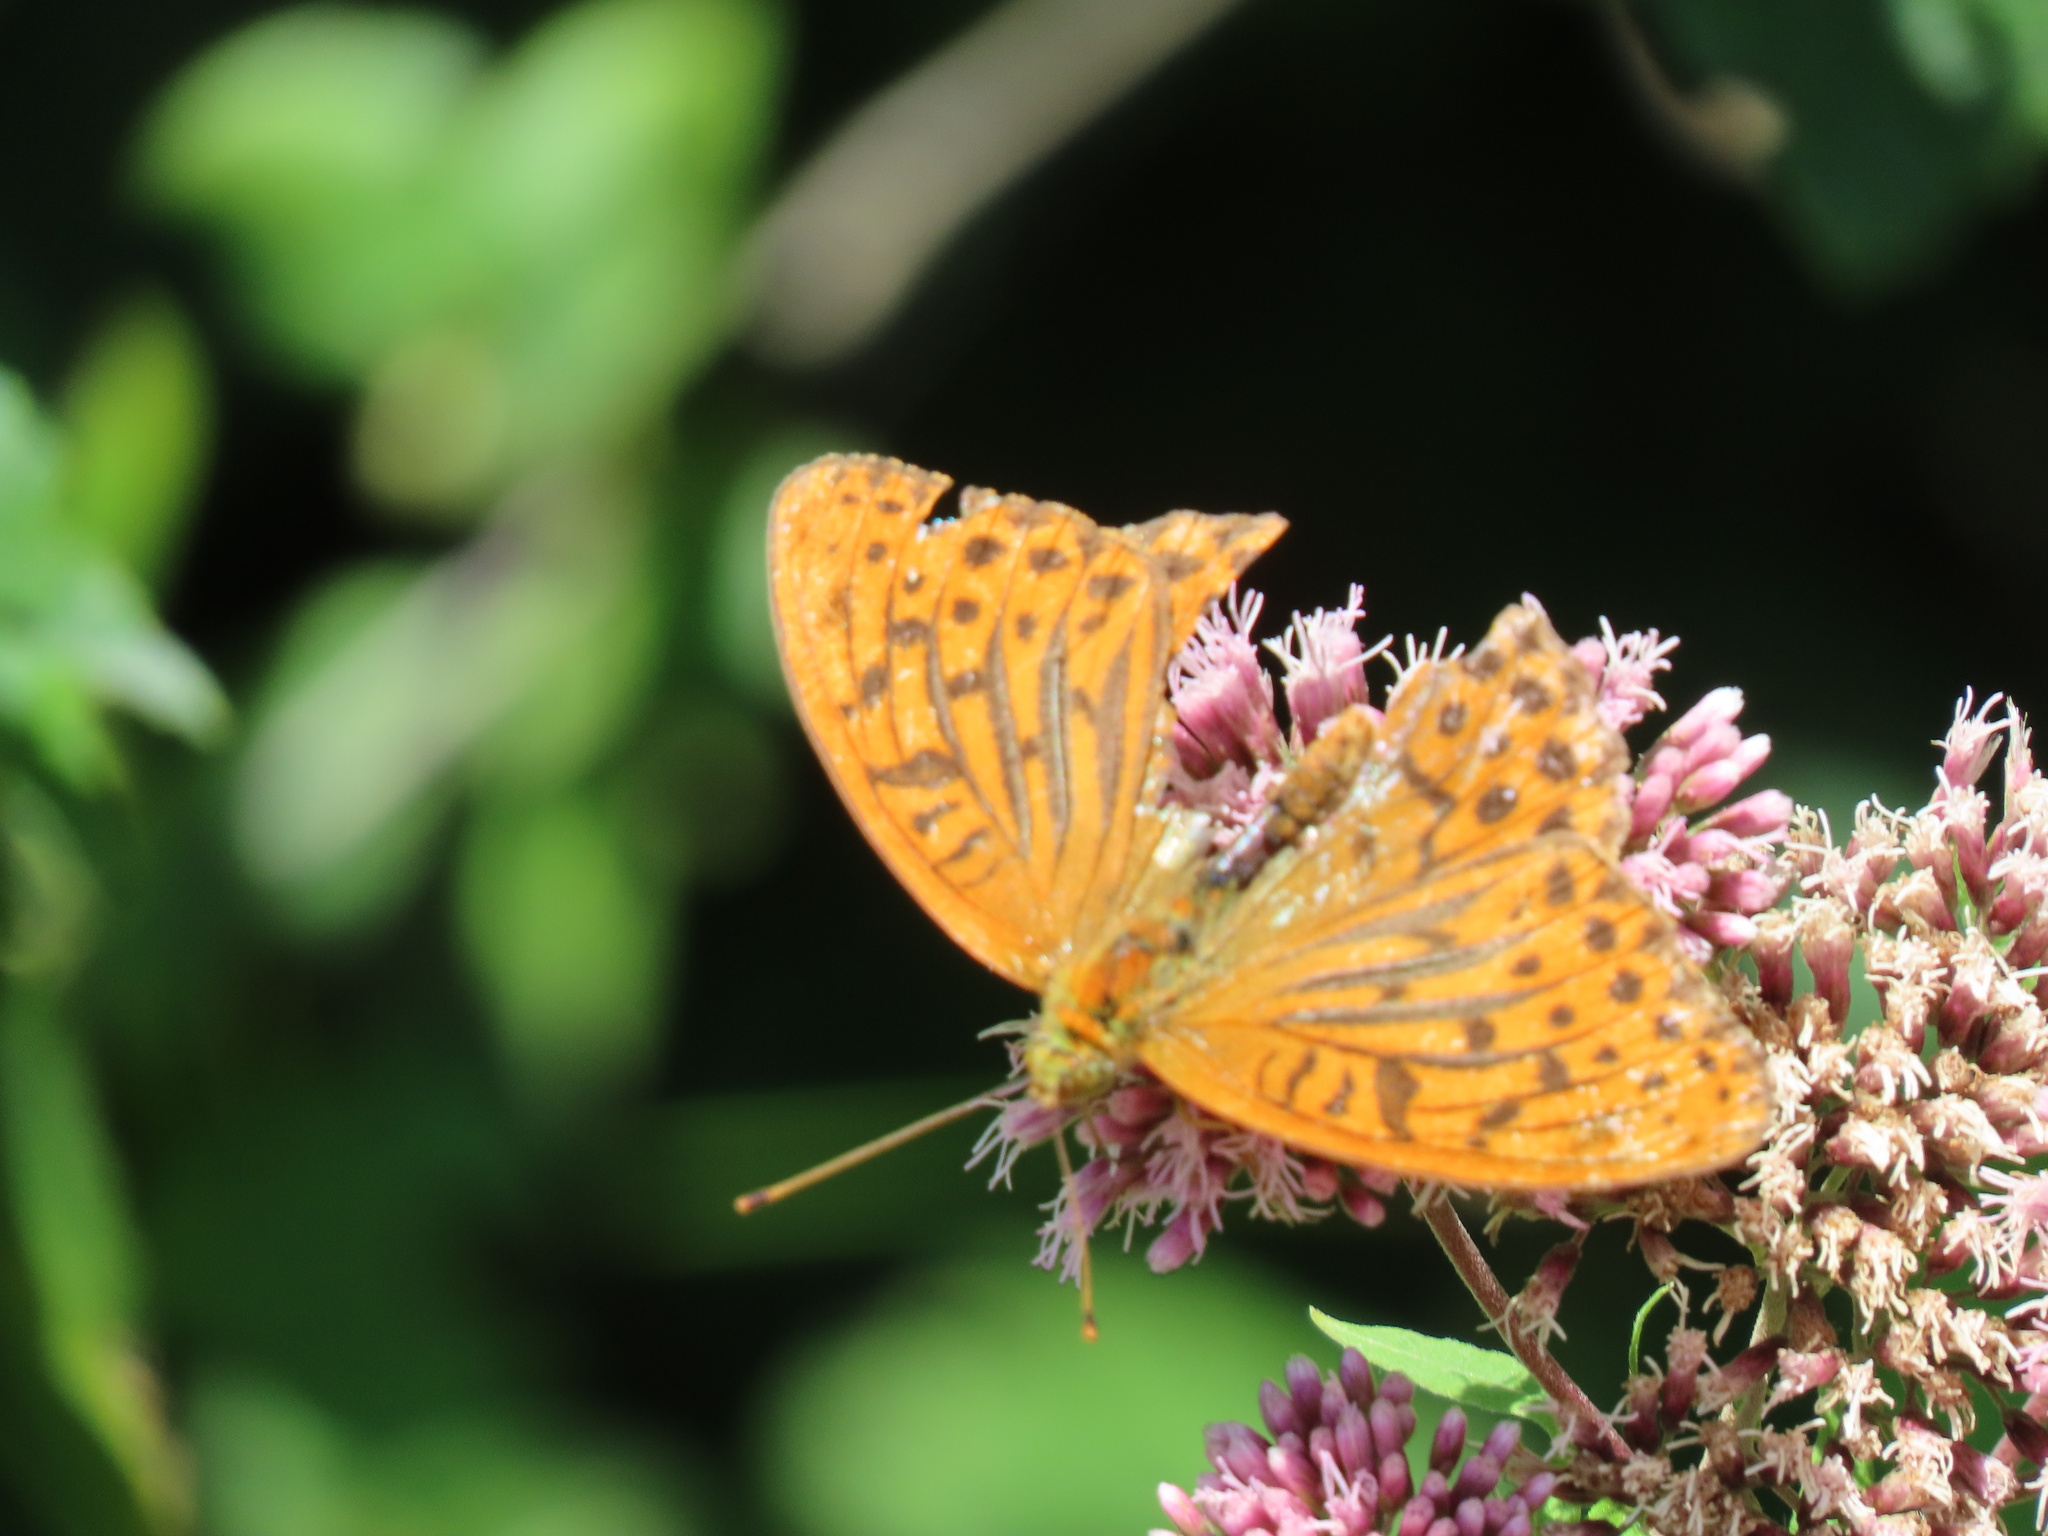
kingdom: Animalia
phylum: Arthropoda
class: Insecta
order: Lepidoptera
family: Nymphalidae
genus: Argynnis
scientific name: Argynnis paphia
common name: Silver-washed fritillary
